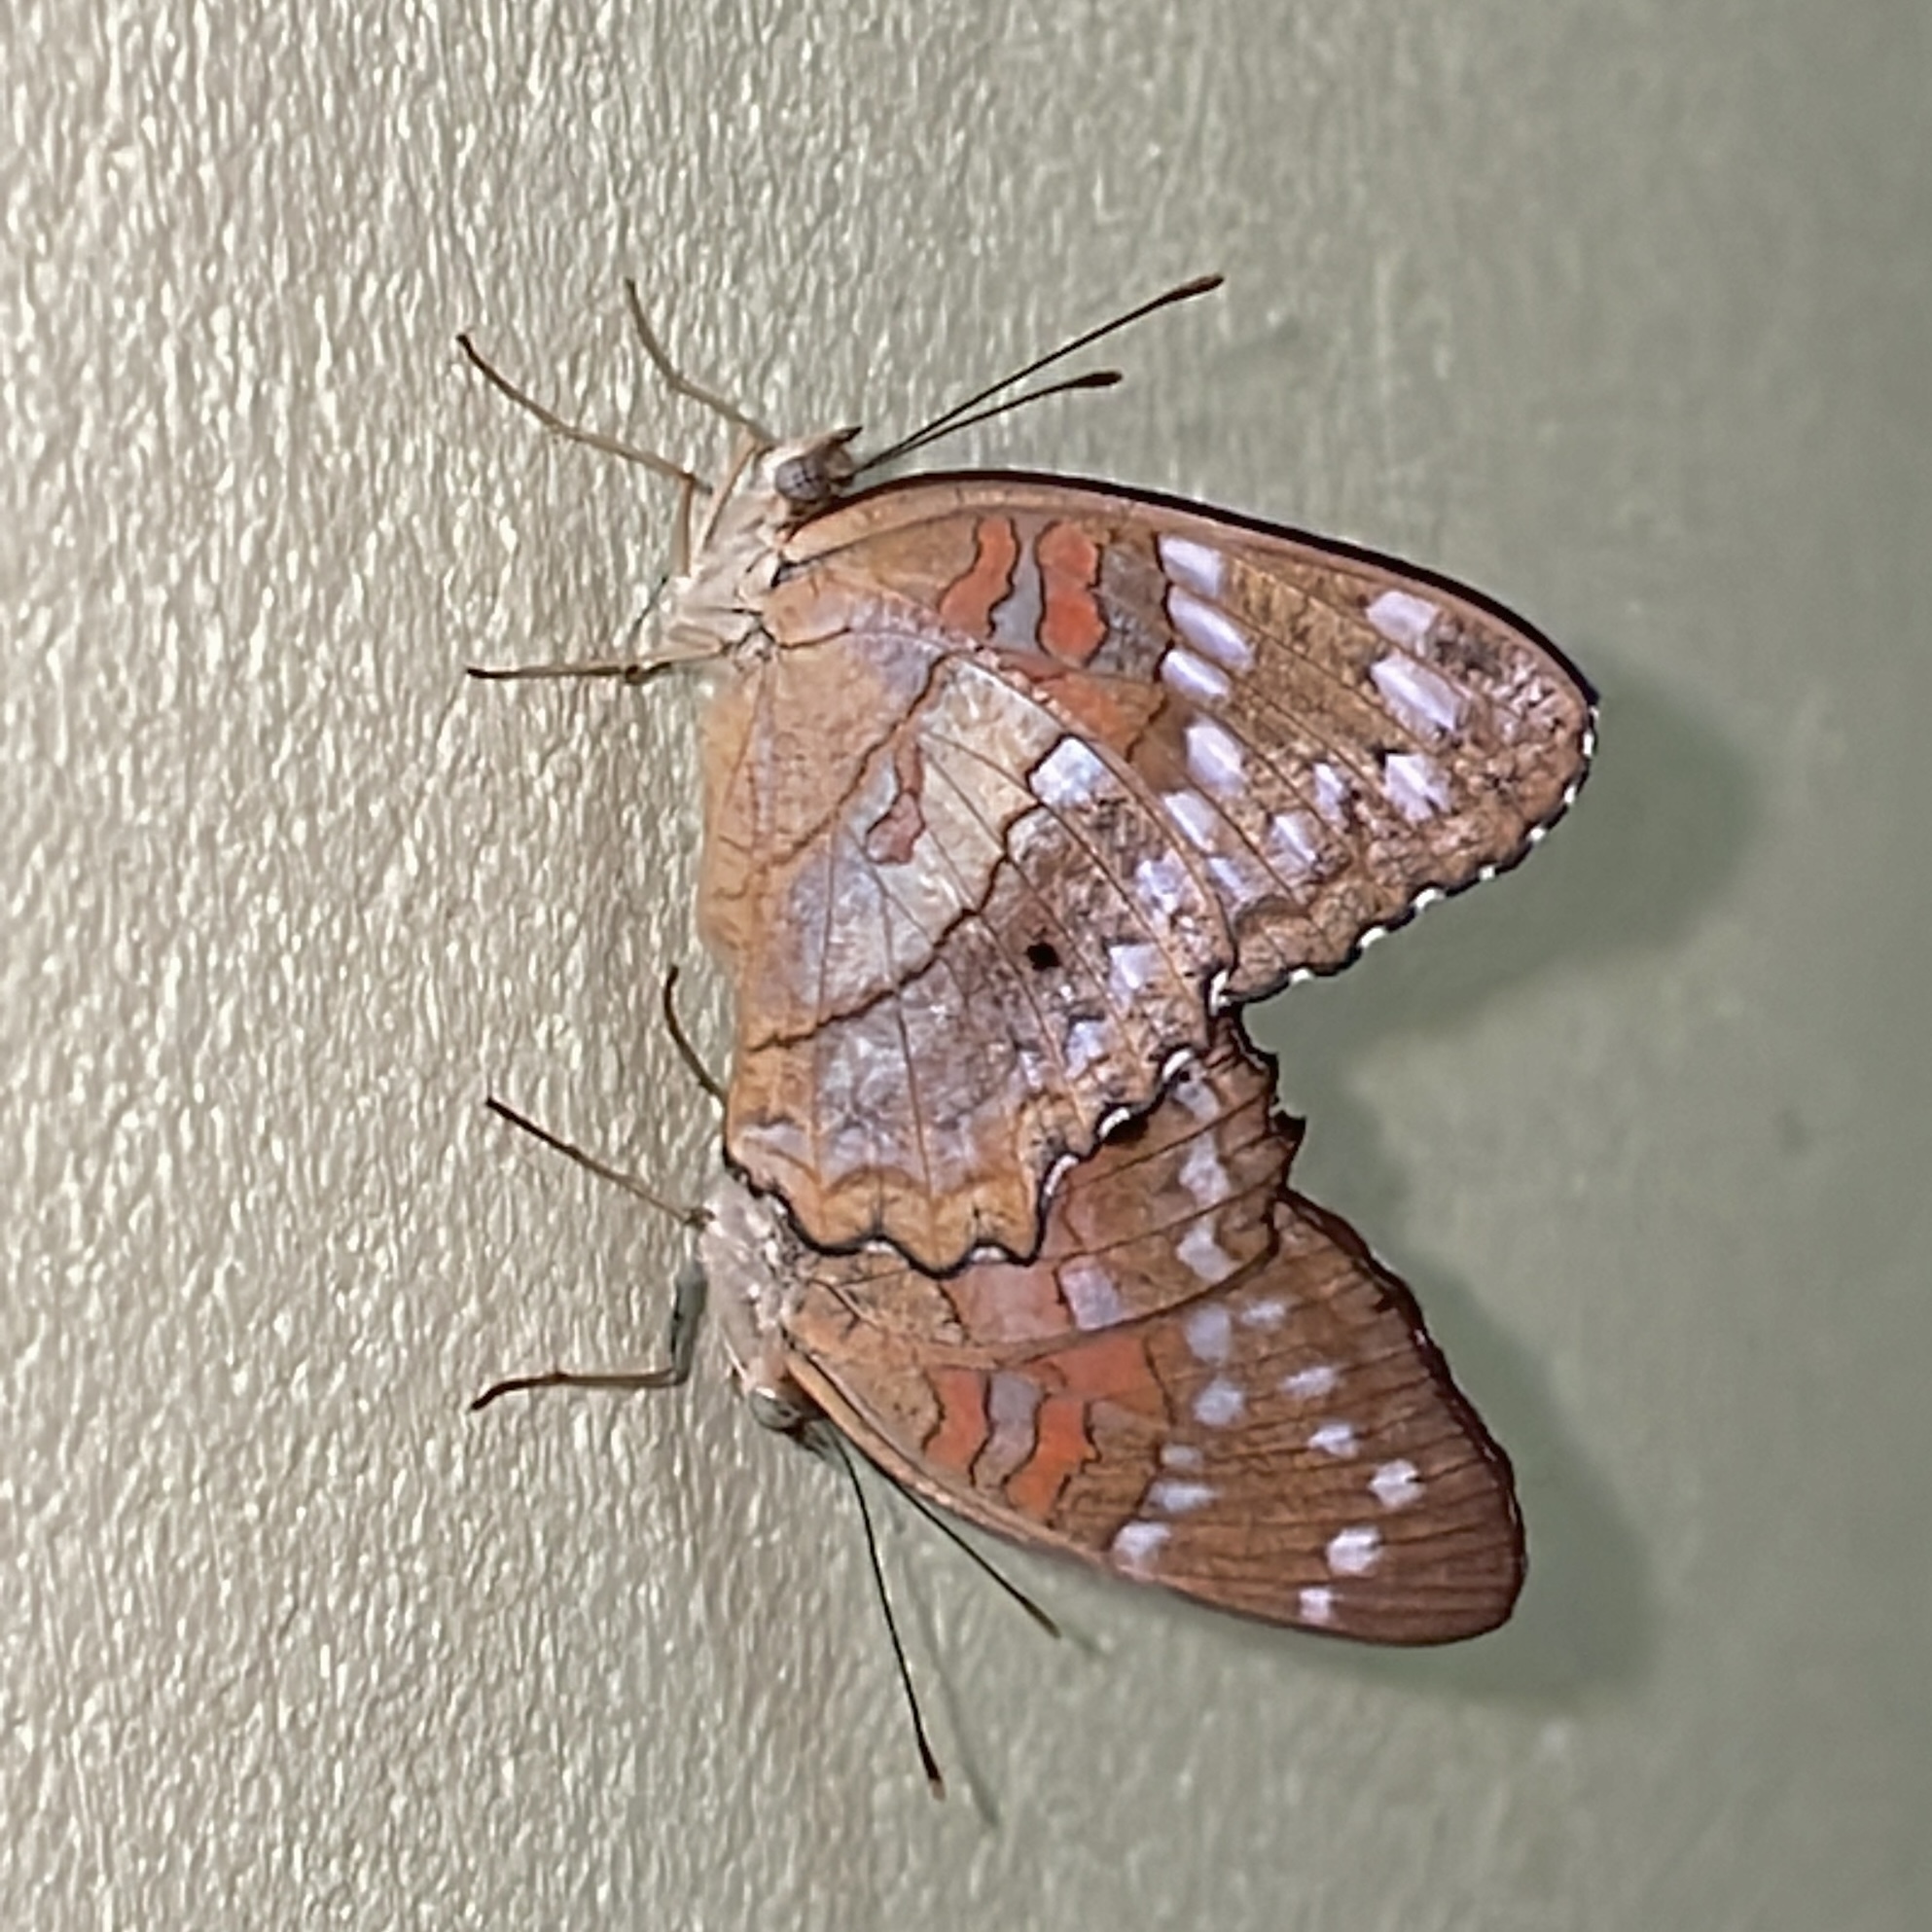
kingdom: Animalia
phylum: Arthropoda
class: Insecta
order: Lepidoptera
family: Nymphalidae
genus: Anartia
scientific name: Anartia amathea
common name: Red peacock
